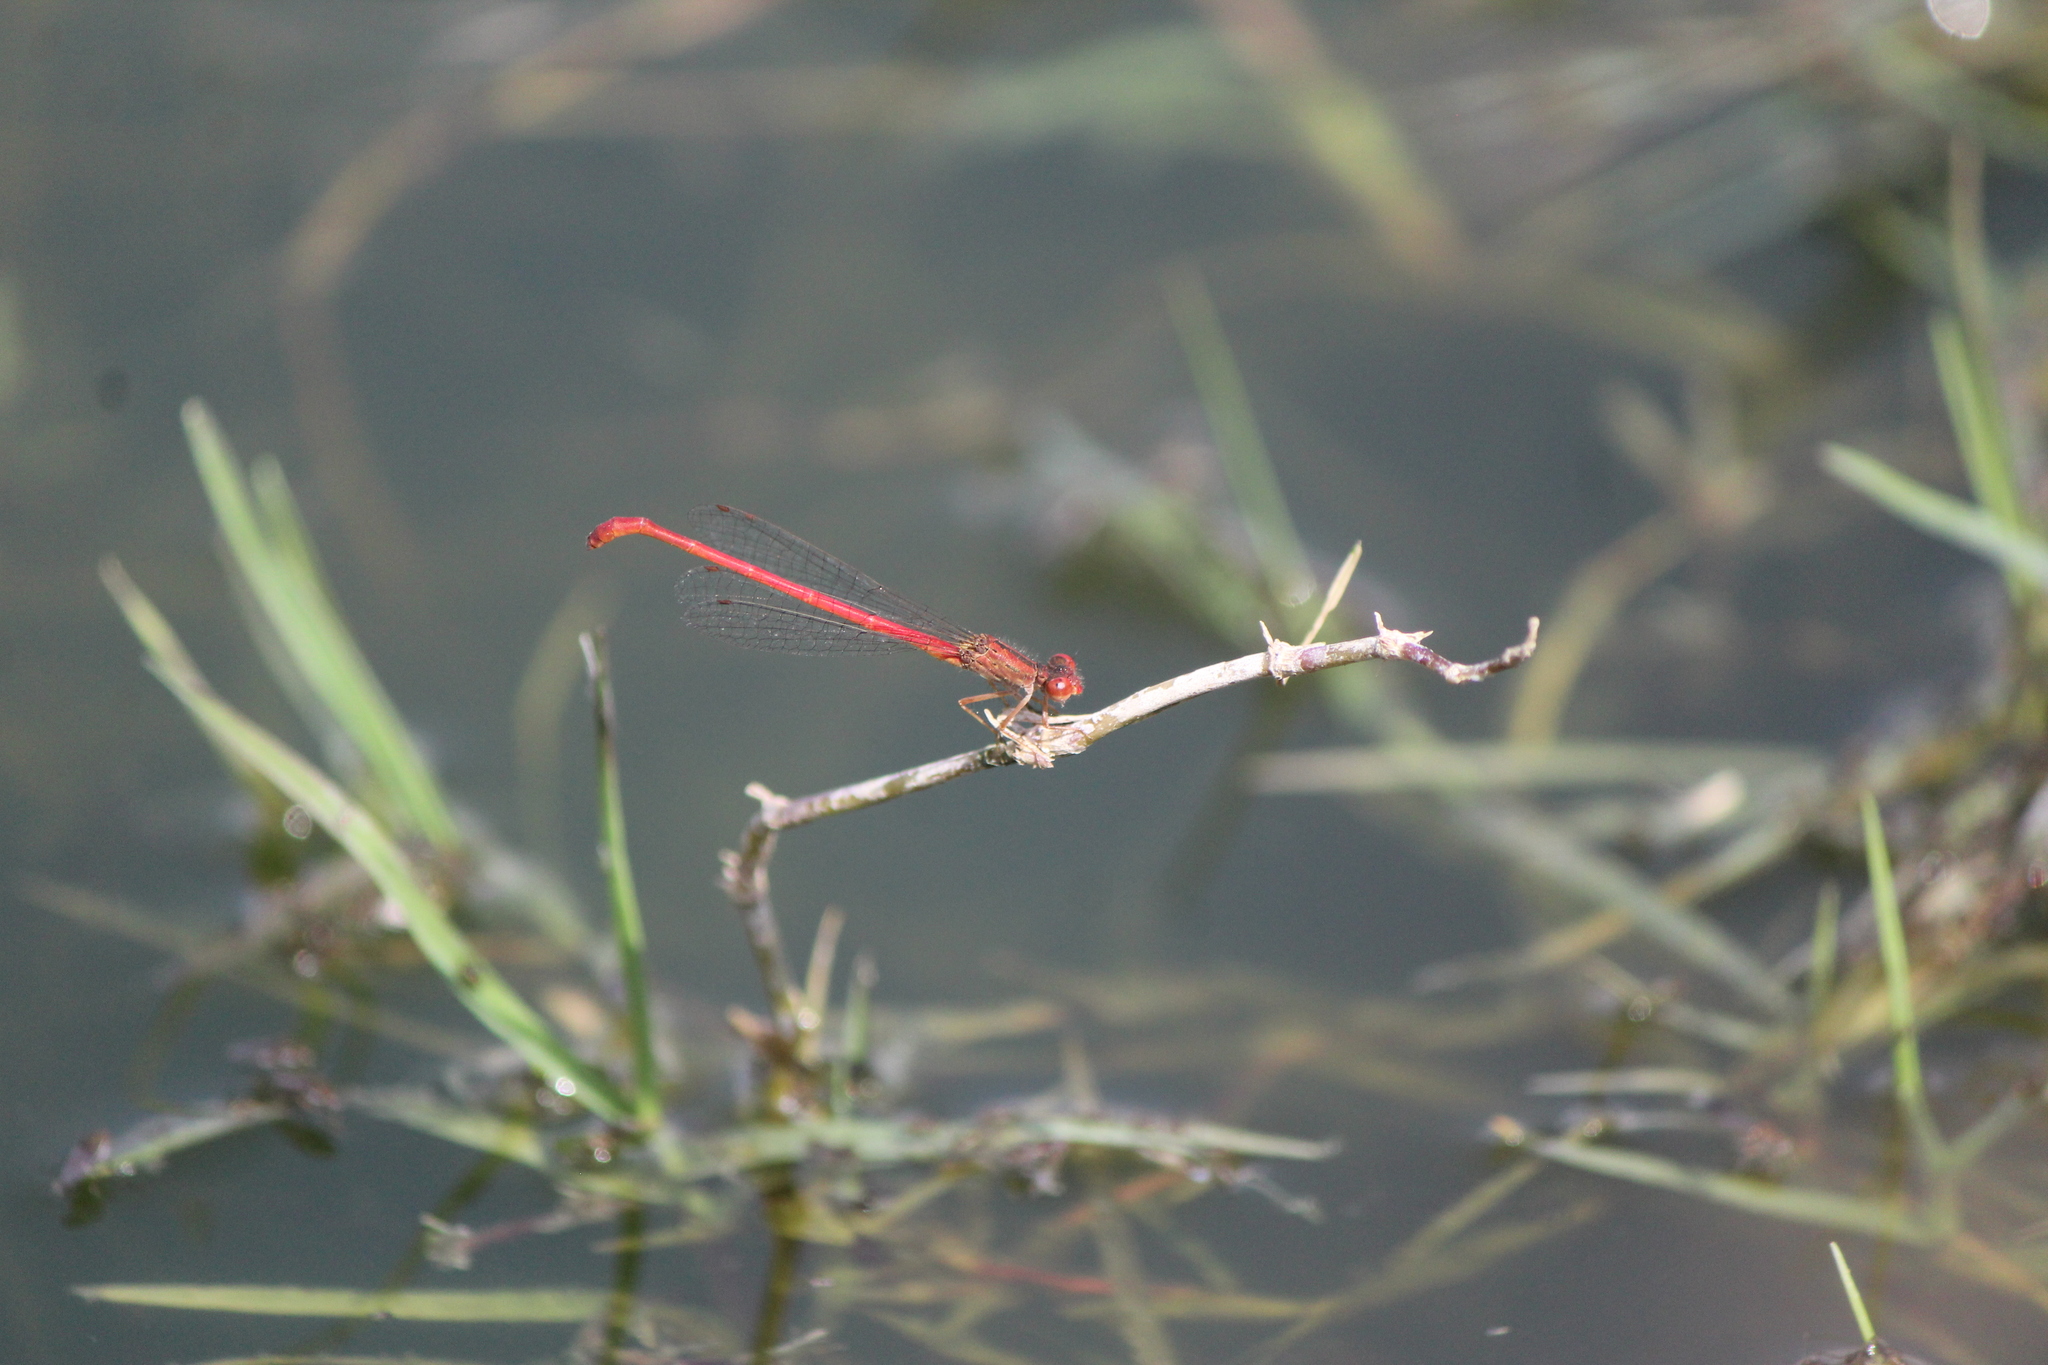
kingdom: Animalia
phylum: Arthropoda
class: Insecta
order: Odonata
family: Coenagrionidae
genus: Telebasis
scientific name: Telebasis salva
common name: Desert firetail
